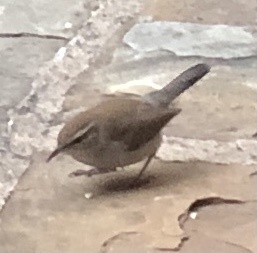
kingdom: Animalia
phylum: Chordata
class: Aves
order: Passeriformes
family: Troglodytidae
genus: Thryomanes
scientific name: Thryomanes bewickii
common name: Bewick's wren
